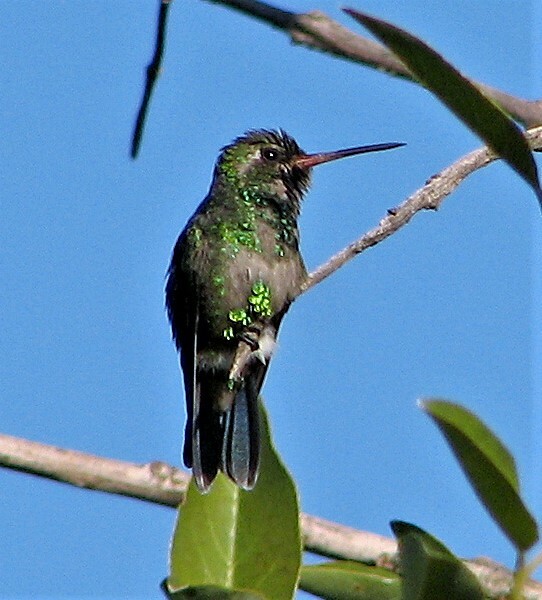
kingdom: Animalia
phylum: Chordata
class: Aves
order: Apodiformes
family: Trochilidae
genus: Chlorostilbon
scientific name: Chlorostilbon lucidus
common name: Glittering-bellied emerald
